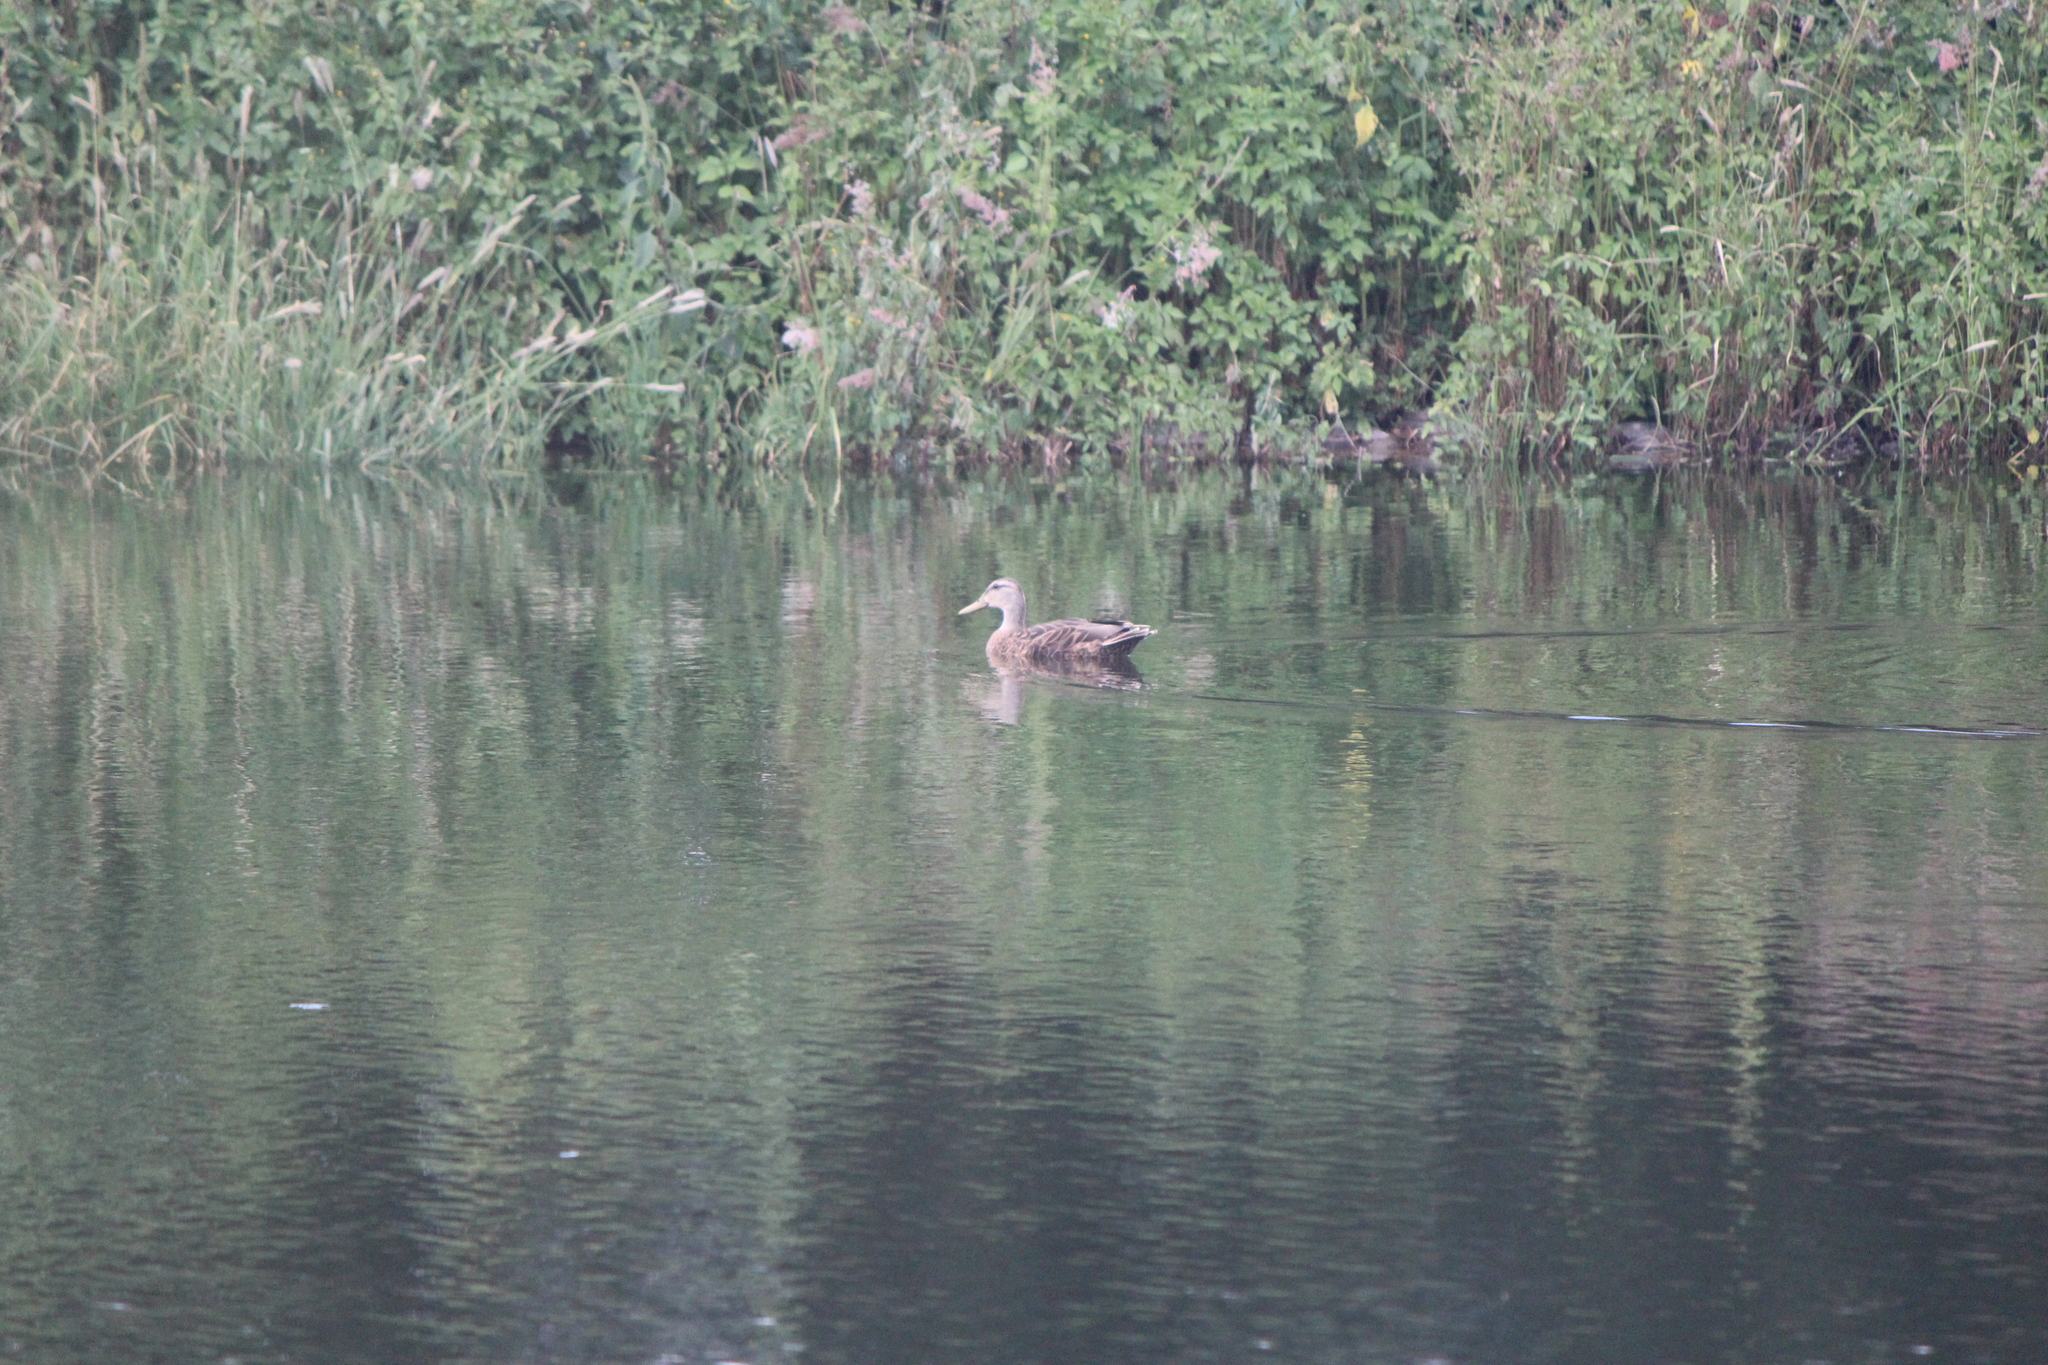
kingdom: Animalia
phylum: Chordata
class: Aves
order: Anseriformes
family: Anatidae
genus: Anas
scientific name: Anas diazi
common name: Mexican duck
